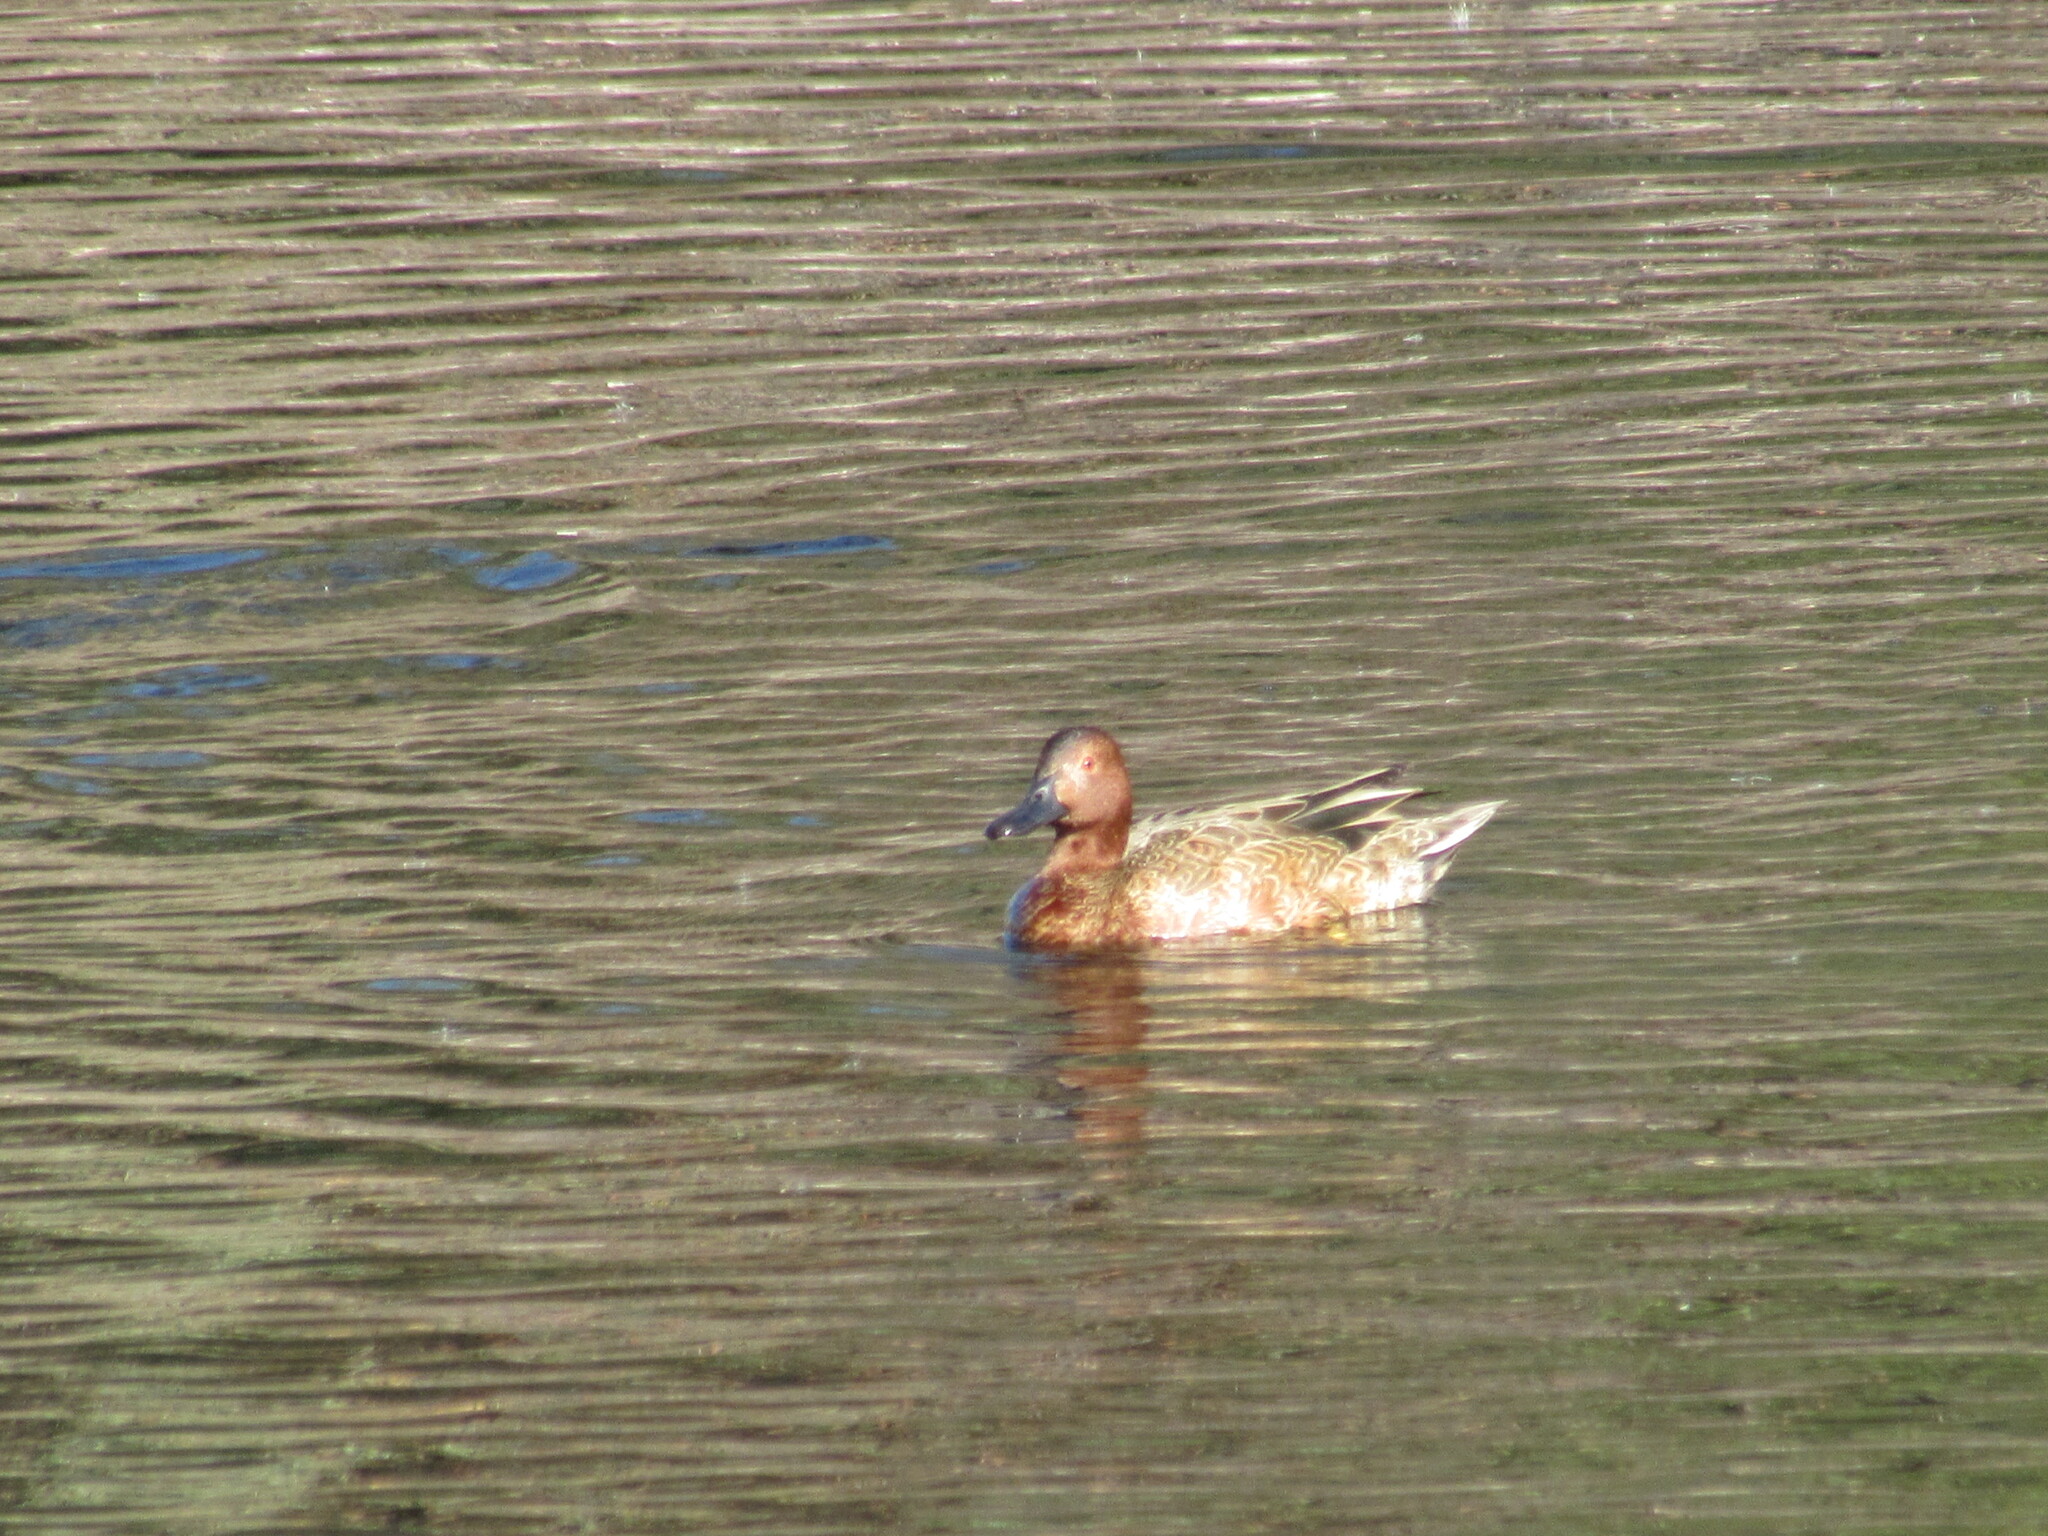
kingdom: Animalia
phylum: Chordata
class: Aves
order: Anseriformes
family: Anatidae
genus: Spatula
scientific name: Spatula cyanoptera
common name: Cinnamon teal
